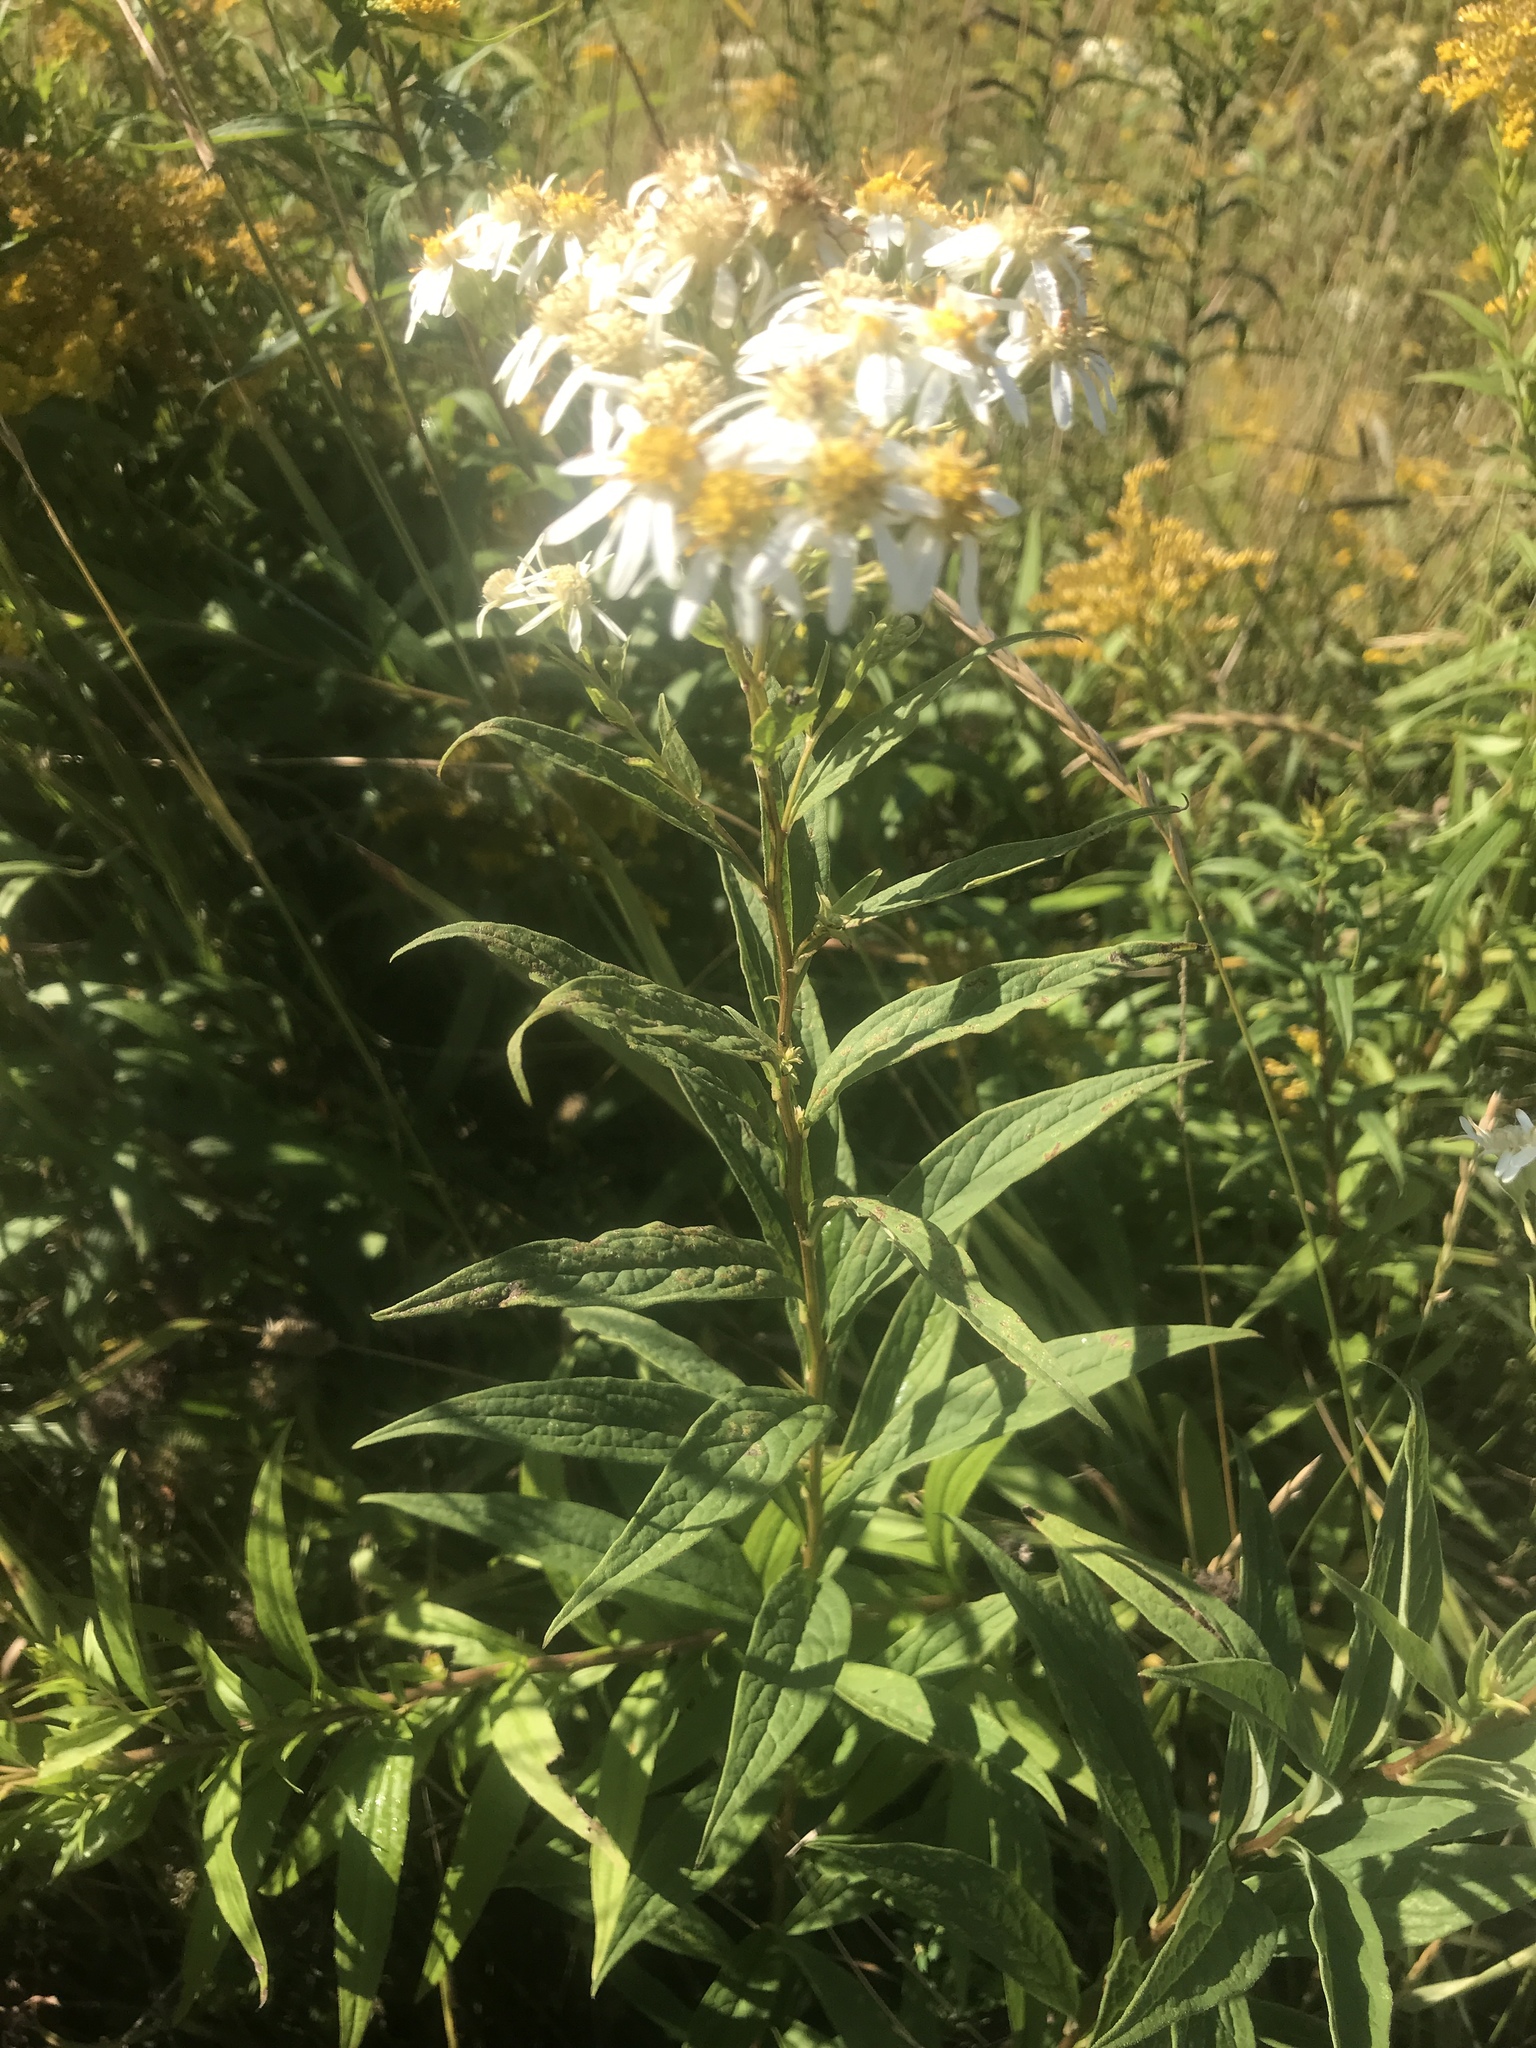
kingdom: Plantae
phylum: Tracheophyta
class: Magnoliopsida
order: Asterales
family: Asteraceae
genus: Doellingeria
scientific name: Doellingeria umbellata
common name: Flat-top white aster
